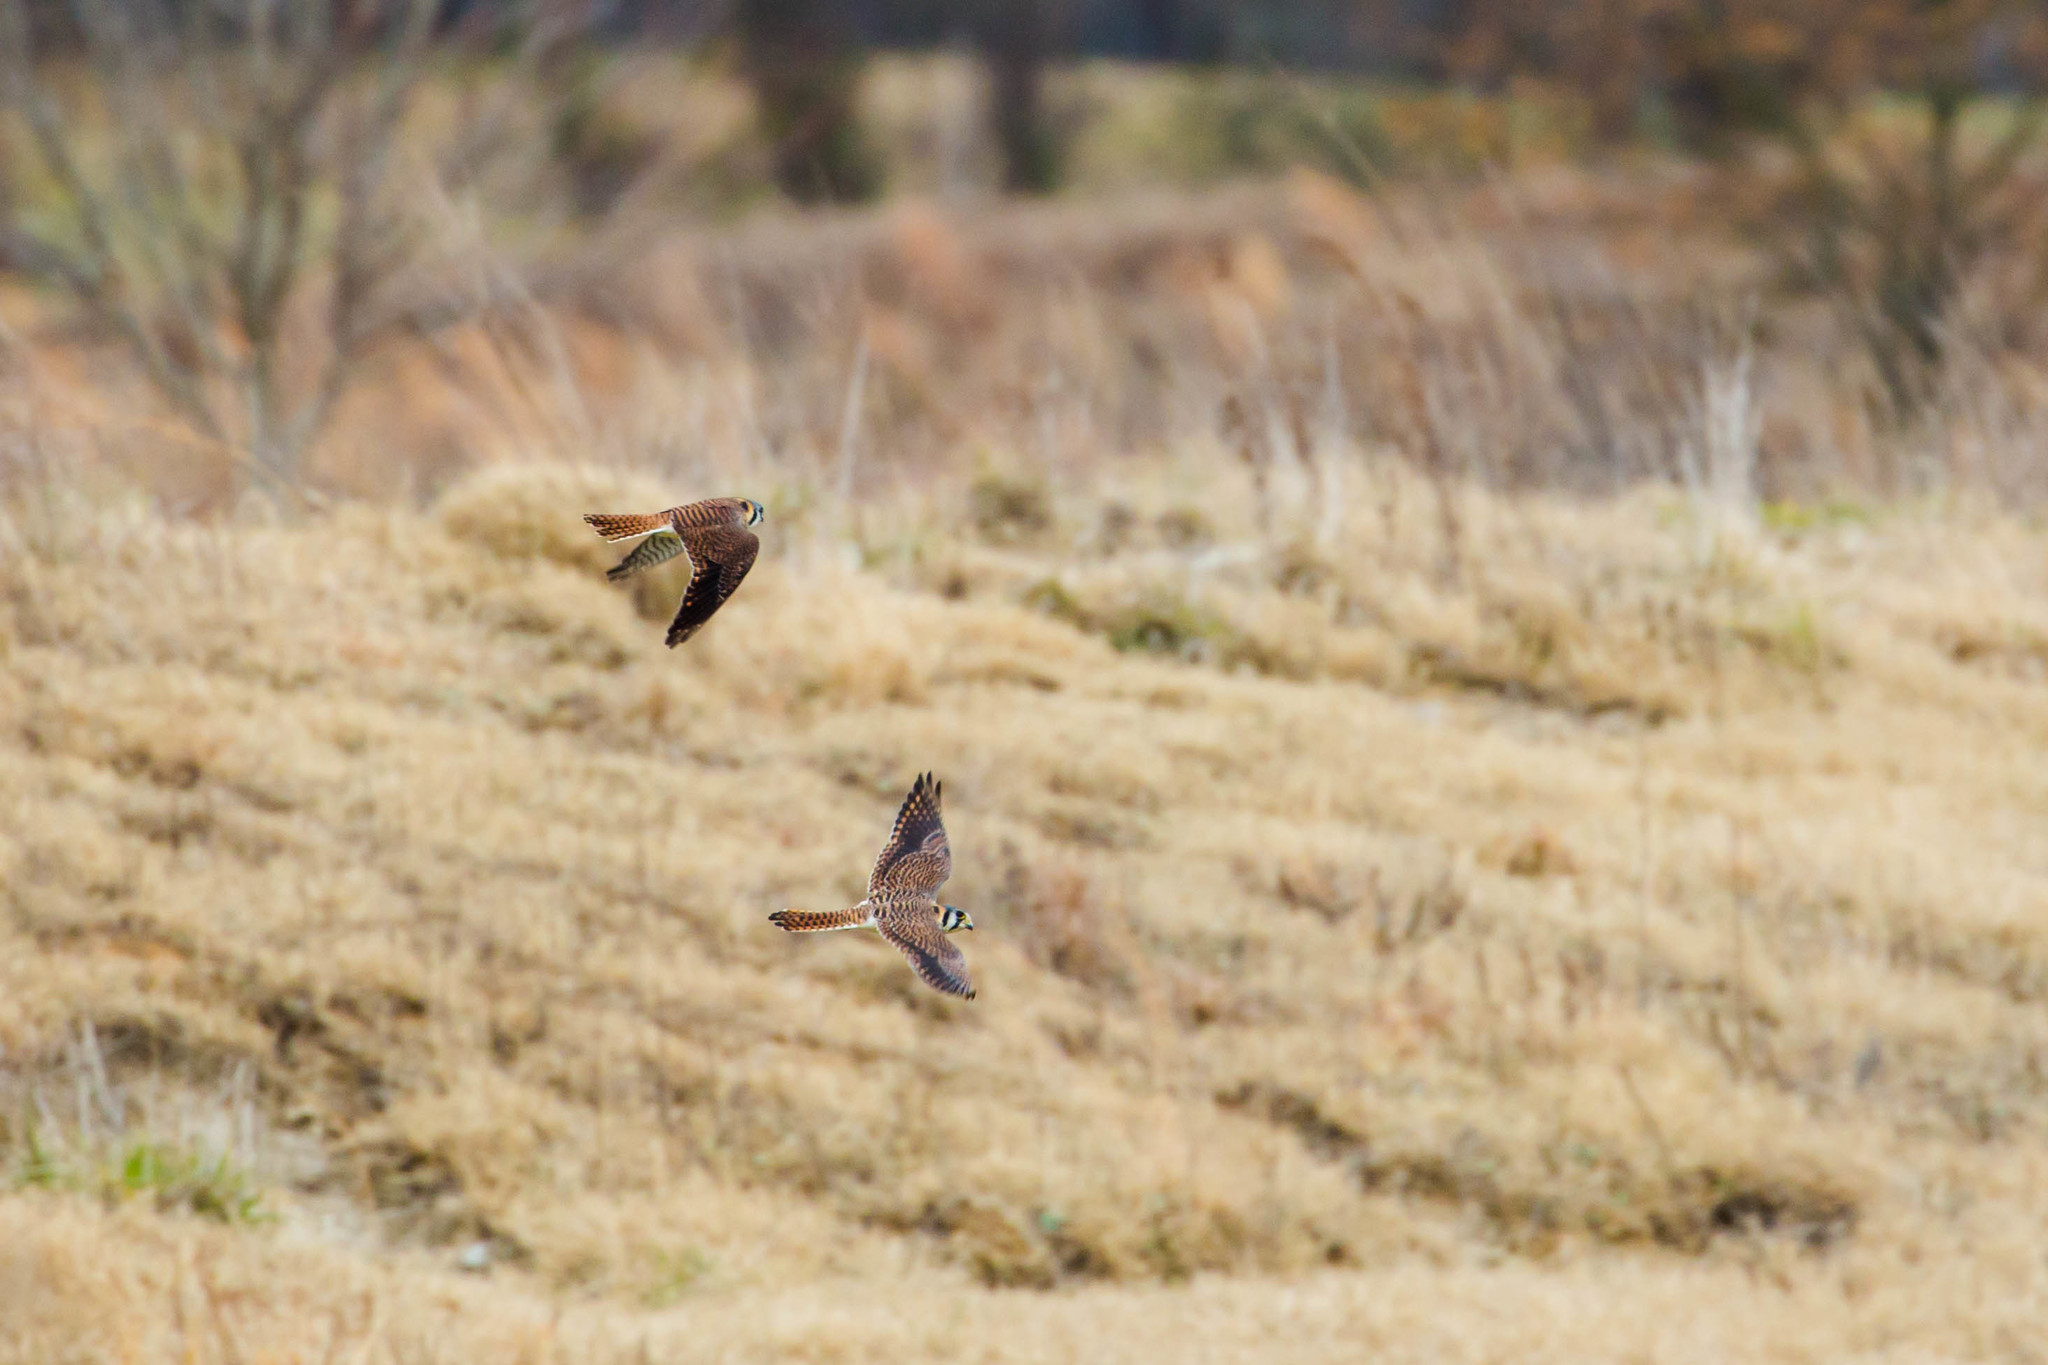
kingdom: Animalia
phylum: Chordata
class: Aves
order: Falconiformes
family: Falconidae
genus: Falco
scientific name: Falco sparverius
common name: American kestrel
